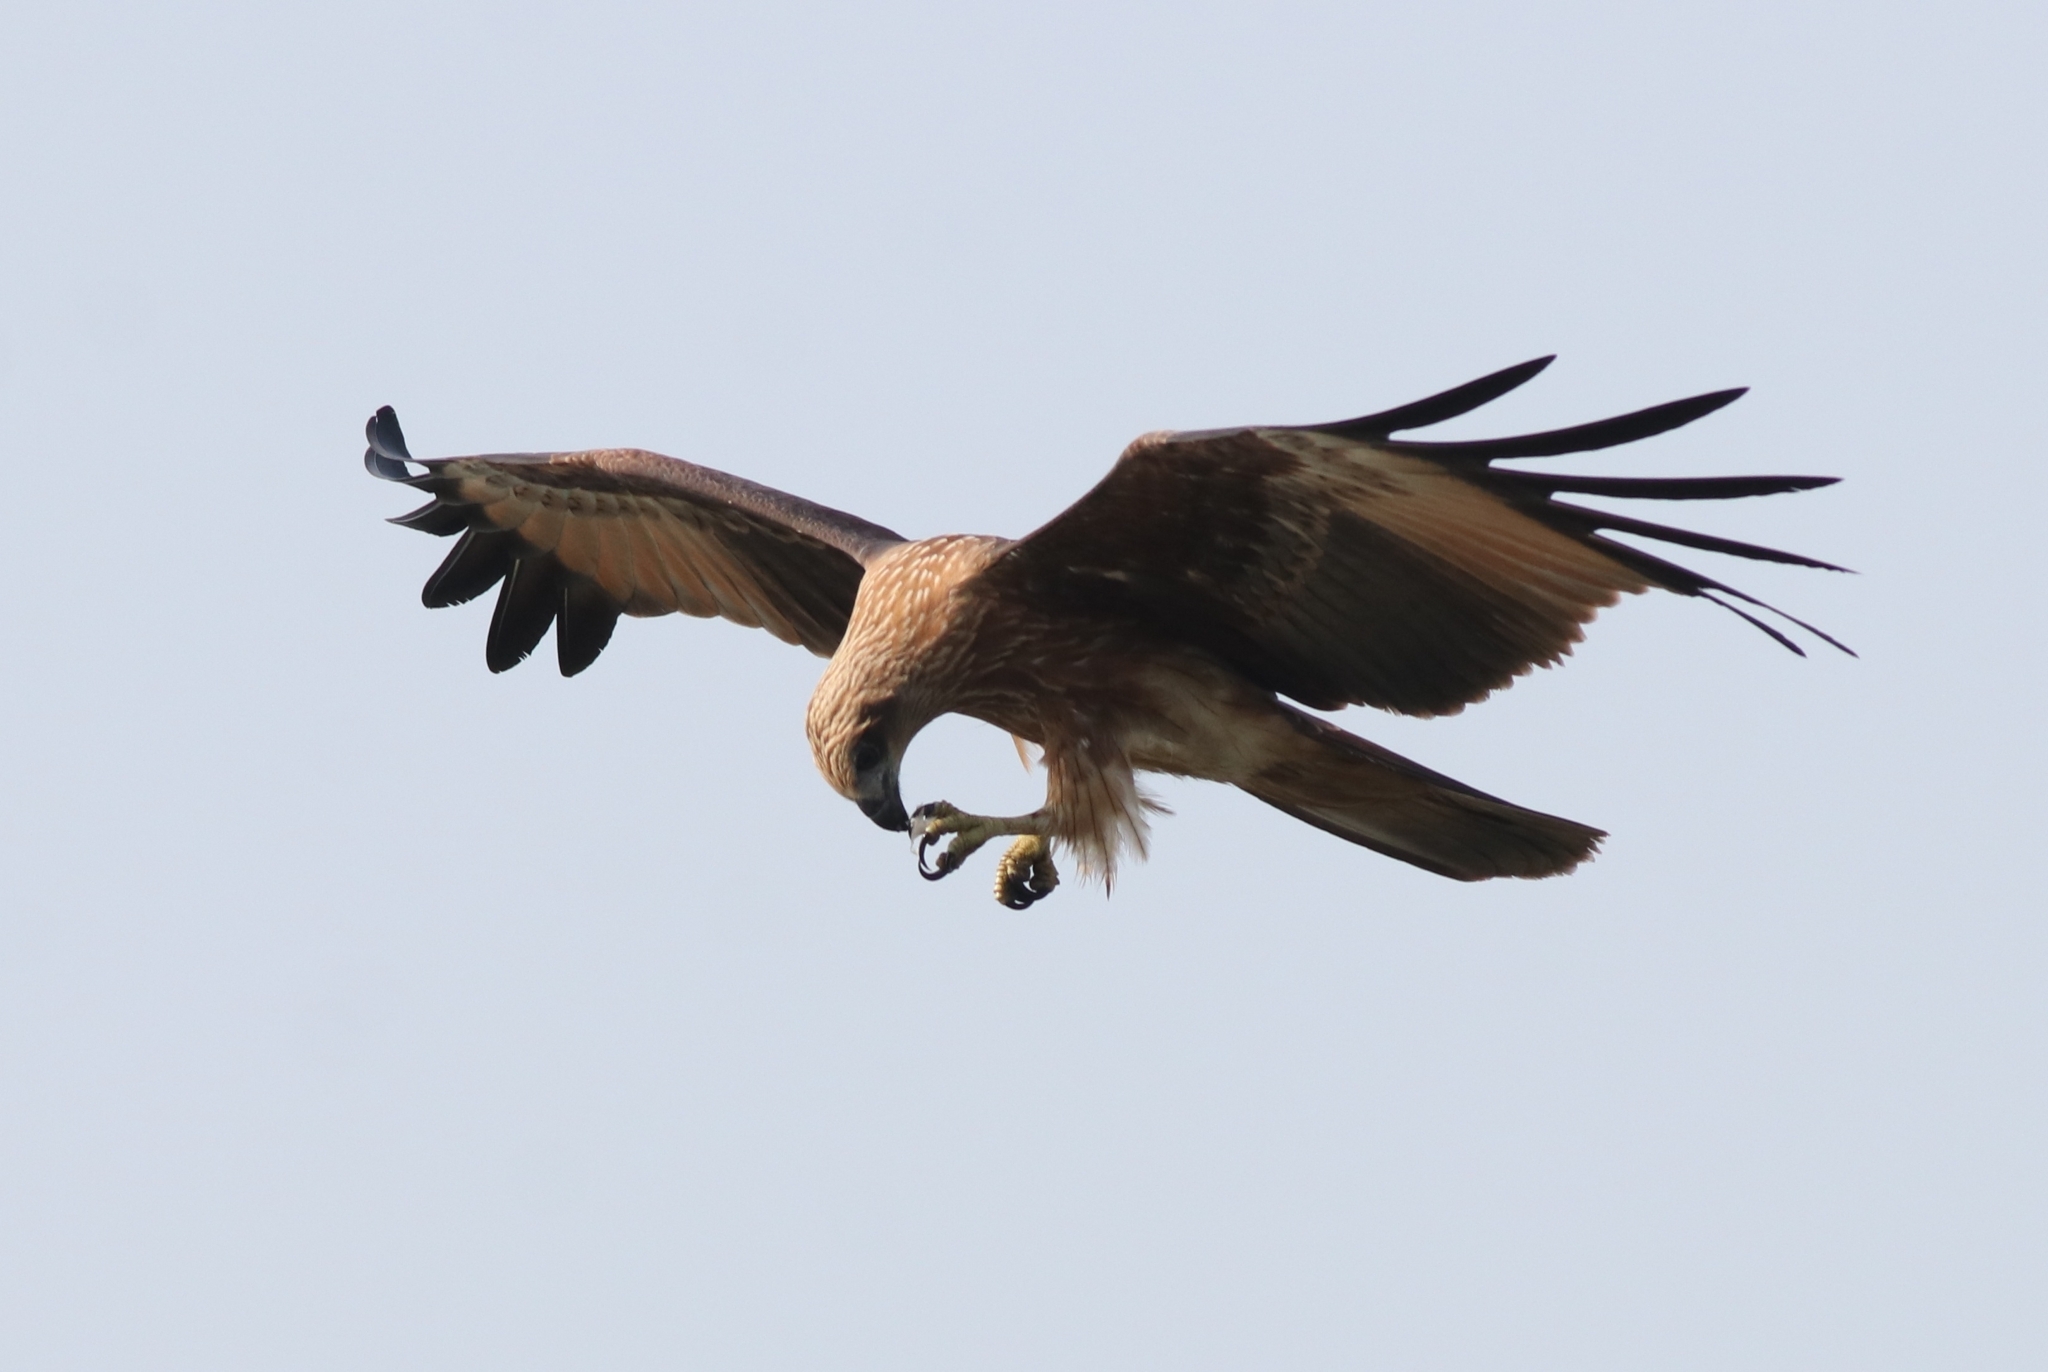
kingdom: Animalia
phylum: Chordata
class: Aves
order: Accipitriformes
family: Accipitridae
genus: Haliastur
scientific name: Haliastur indus
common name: Brahminy kite
